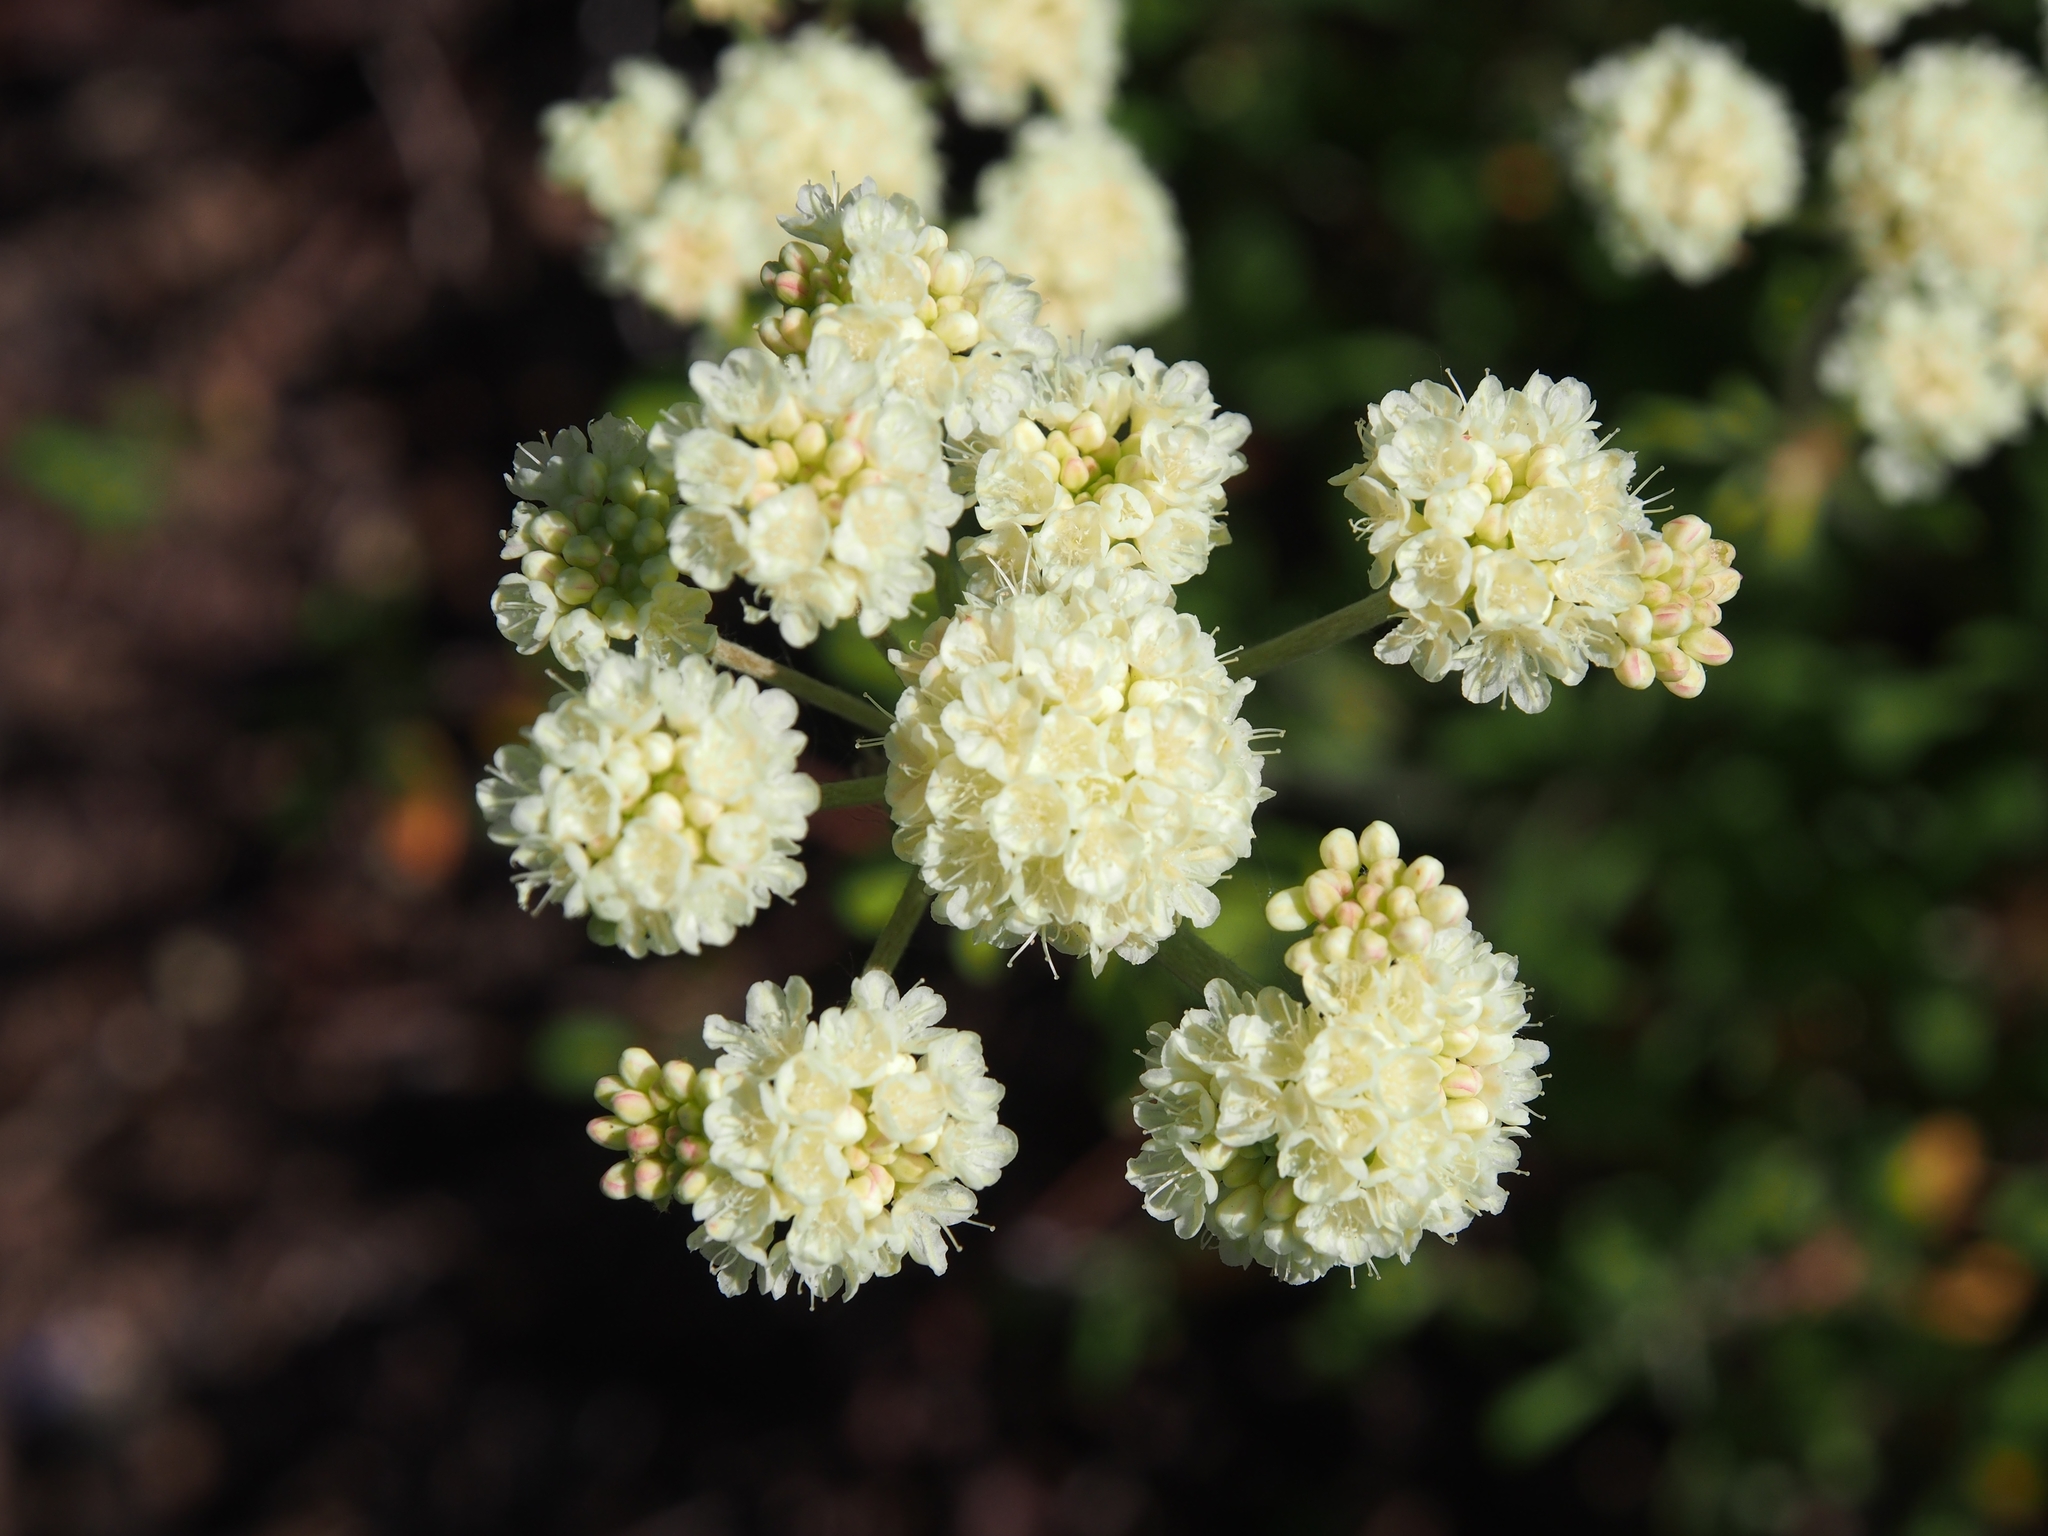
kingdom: Plantae
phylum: Tracheophyta
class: Magnoliopsida
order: Caryophyllales
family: Polygonaceae
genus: Eriogonum
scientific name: Eriogonum heracleoides
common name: Wyeth's buckwheat
